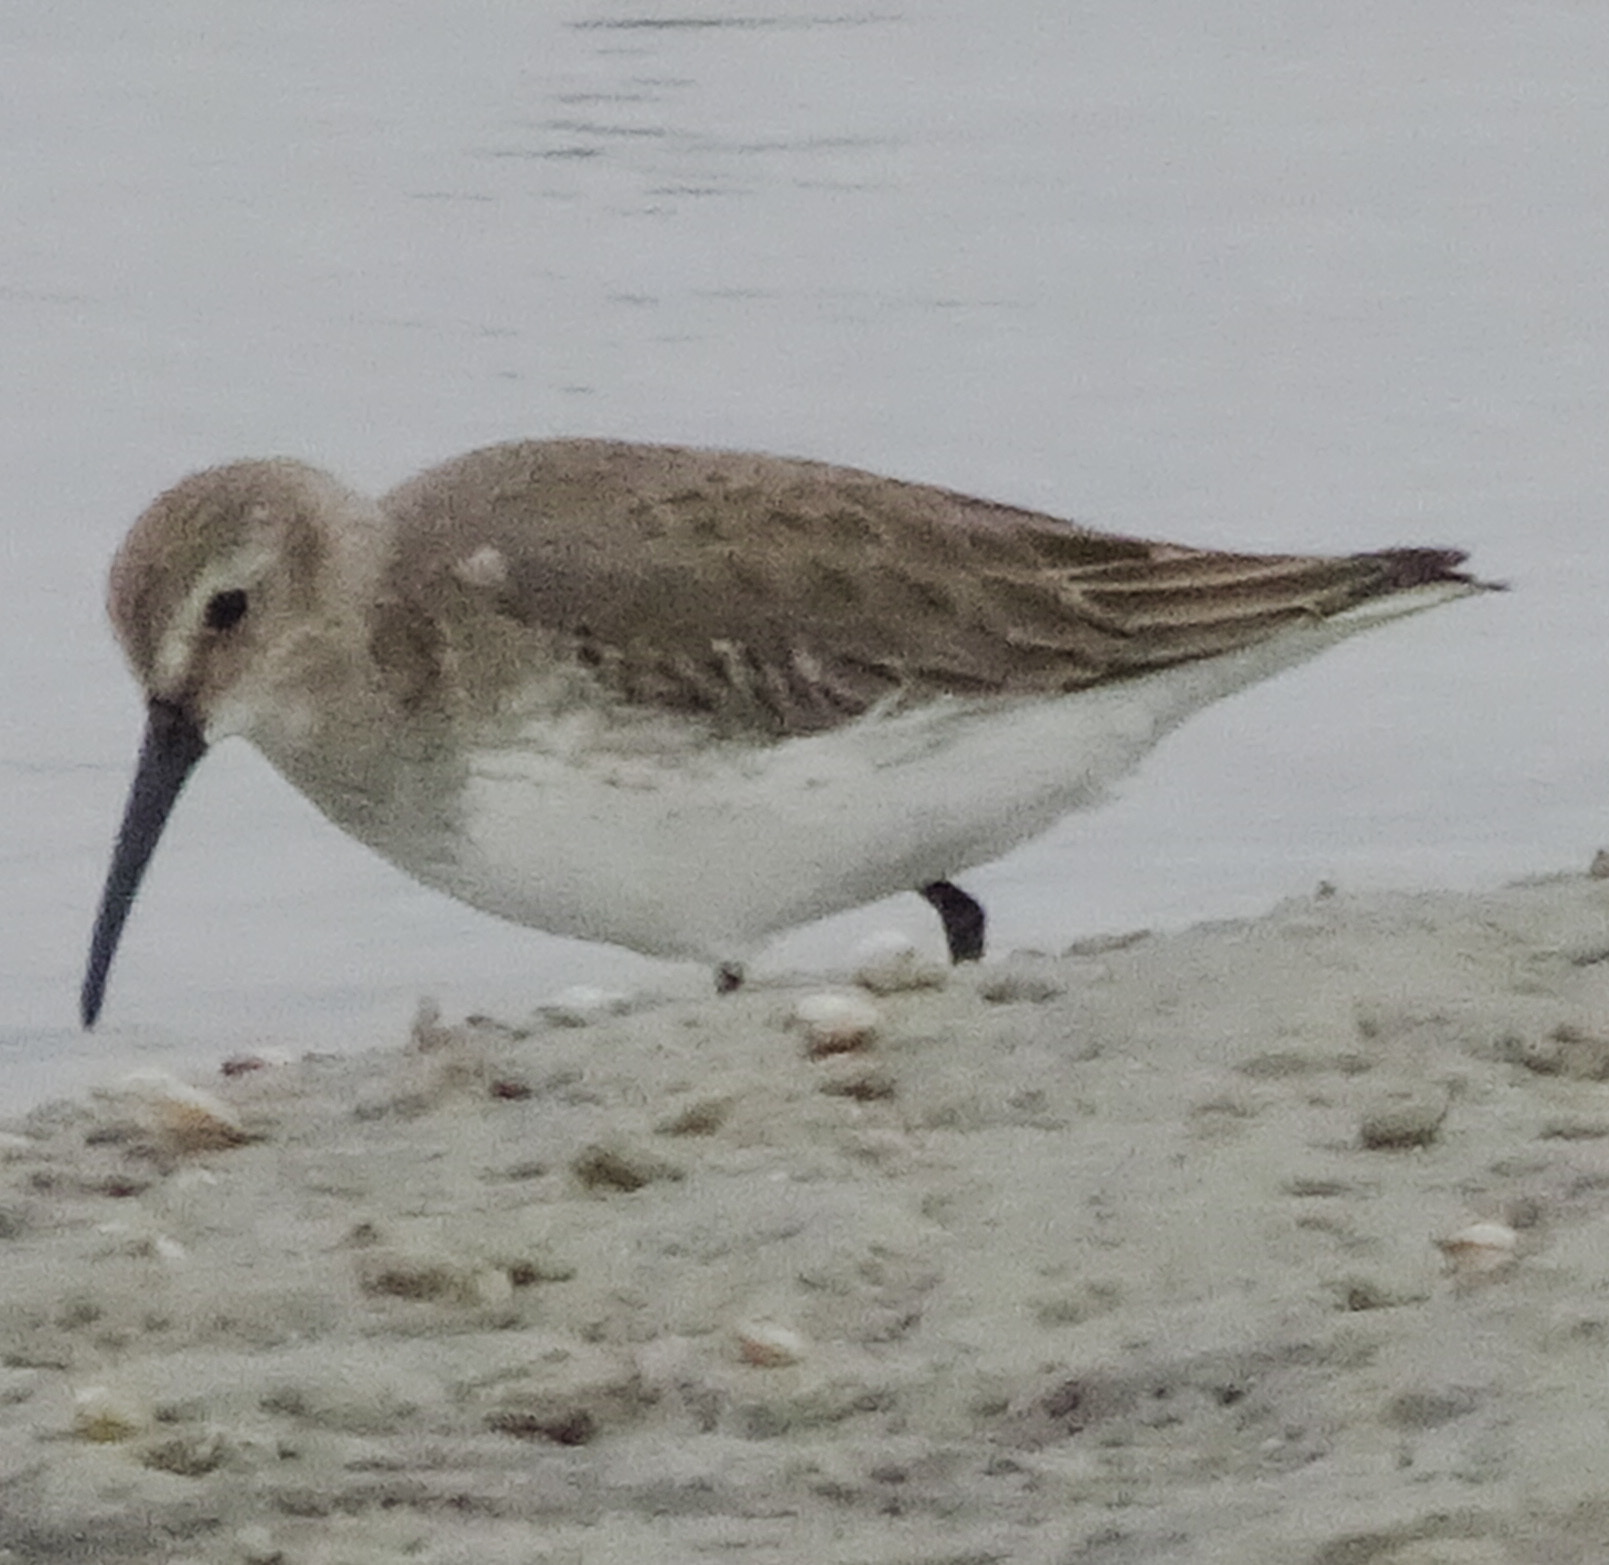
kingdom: Animalia
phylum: Chordata
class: Aves
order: Charadriiformes
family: Scolopacidae
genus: Calidris
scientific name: Calidris alpina
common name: Dunlin
